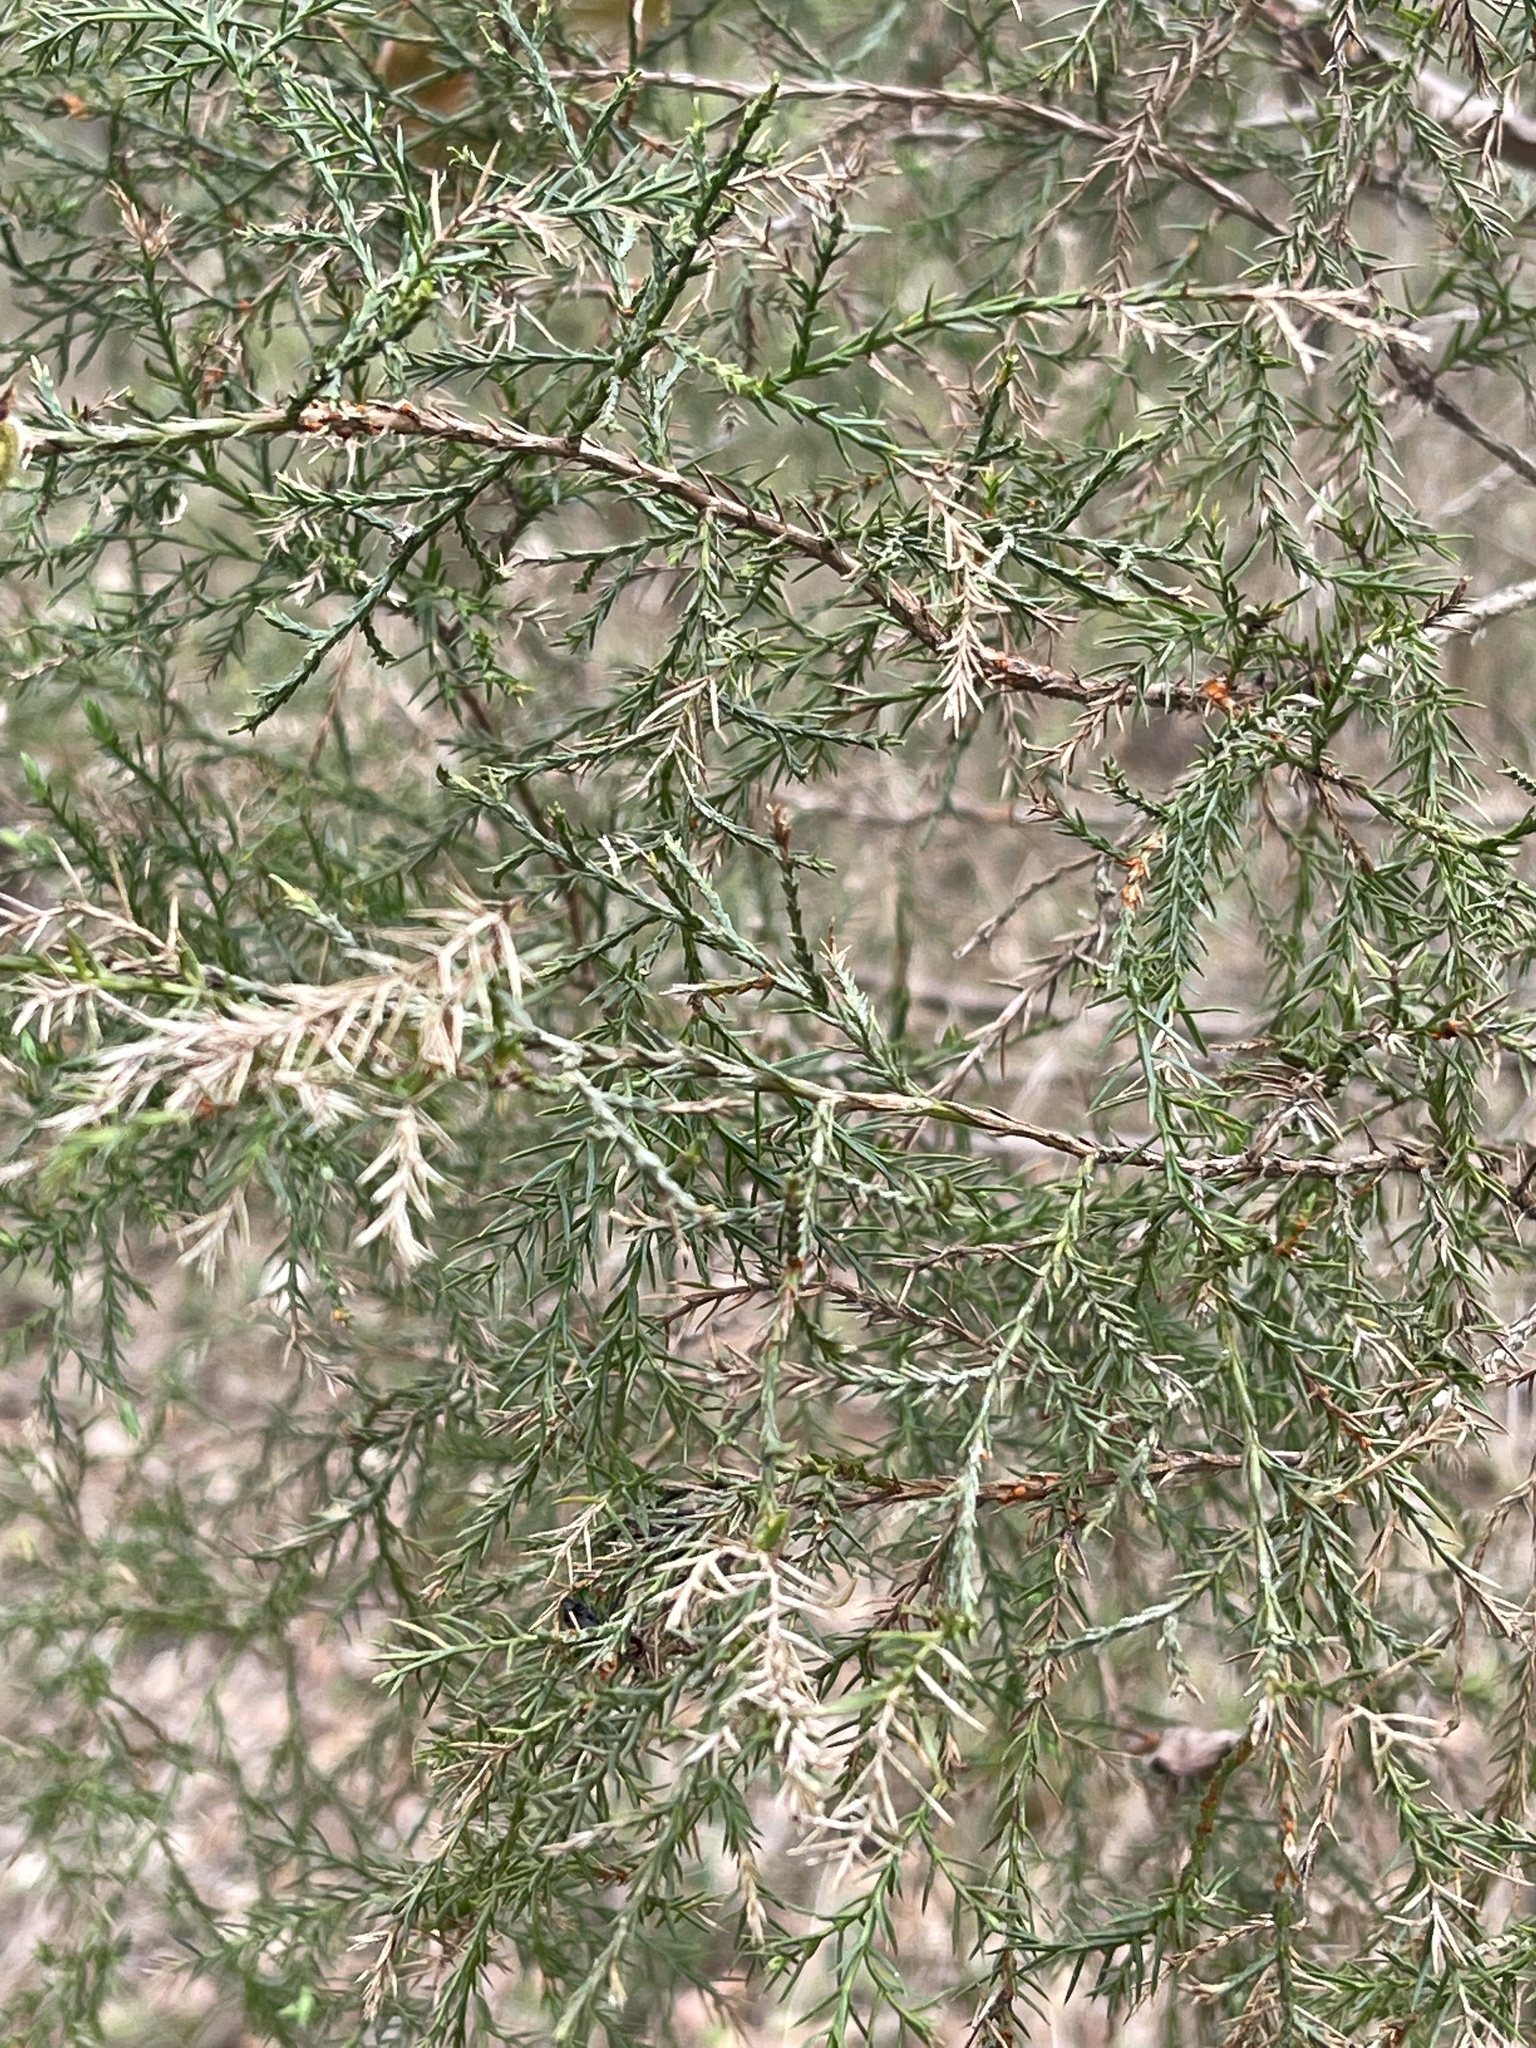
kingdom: Plantae
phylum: Tracheophyta
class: Pinopsida
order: Pinales
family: Cupressaceae
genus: Juniperus
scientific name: Juniperus virginiana
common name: Red juniper
